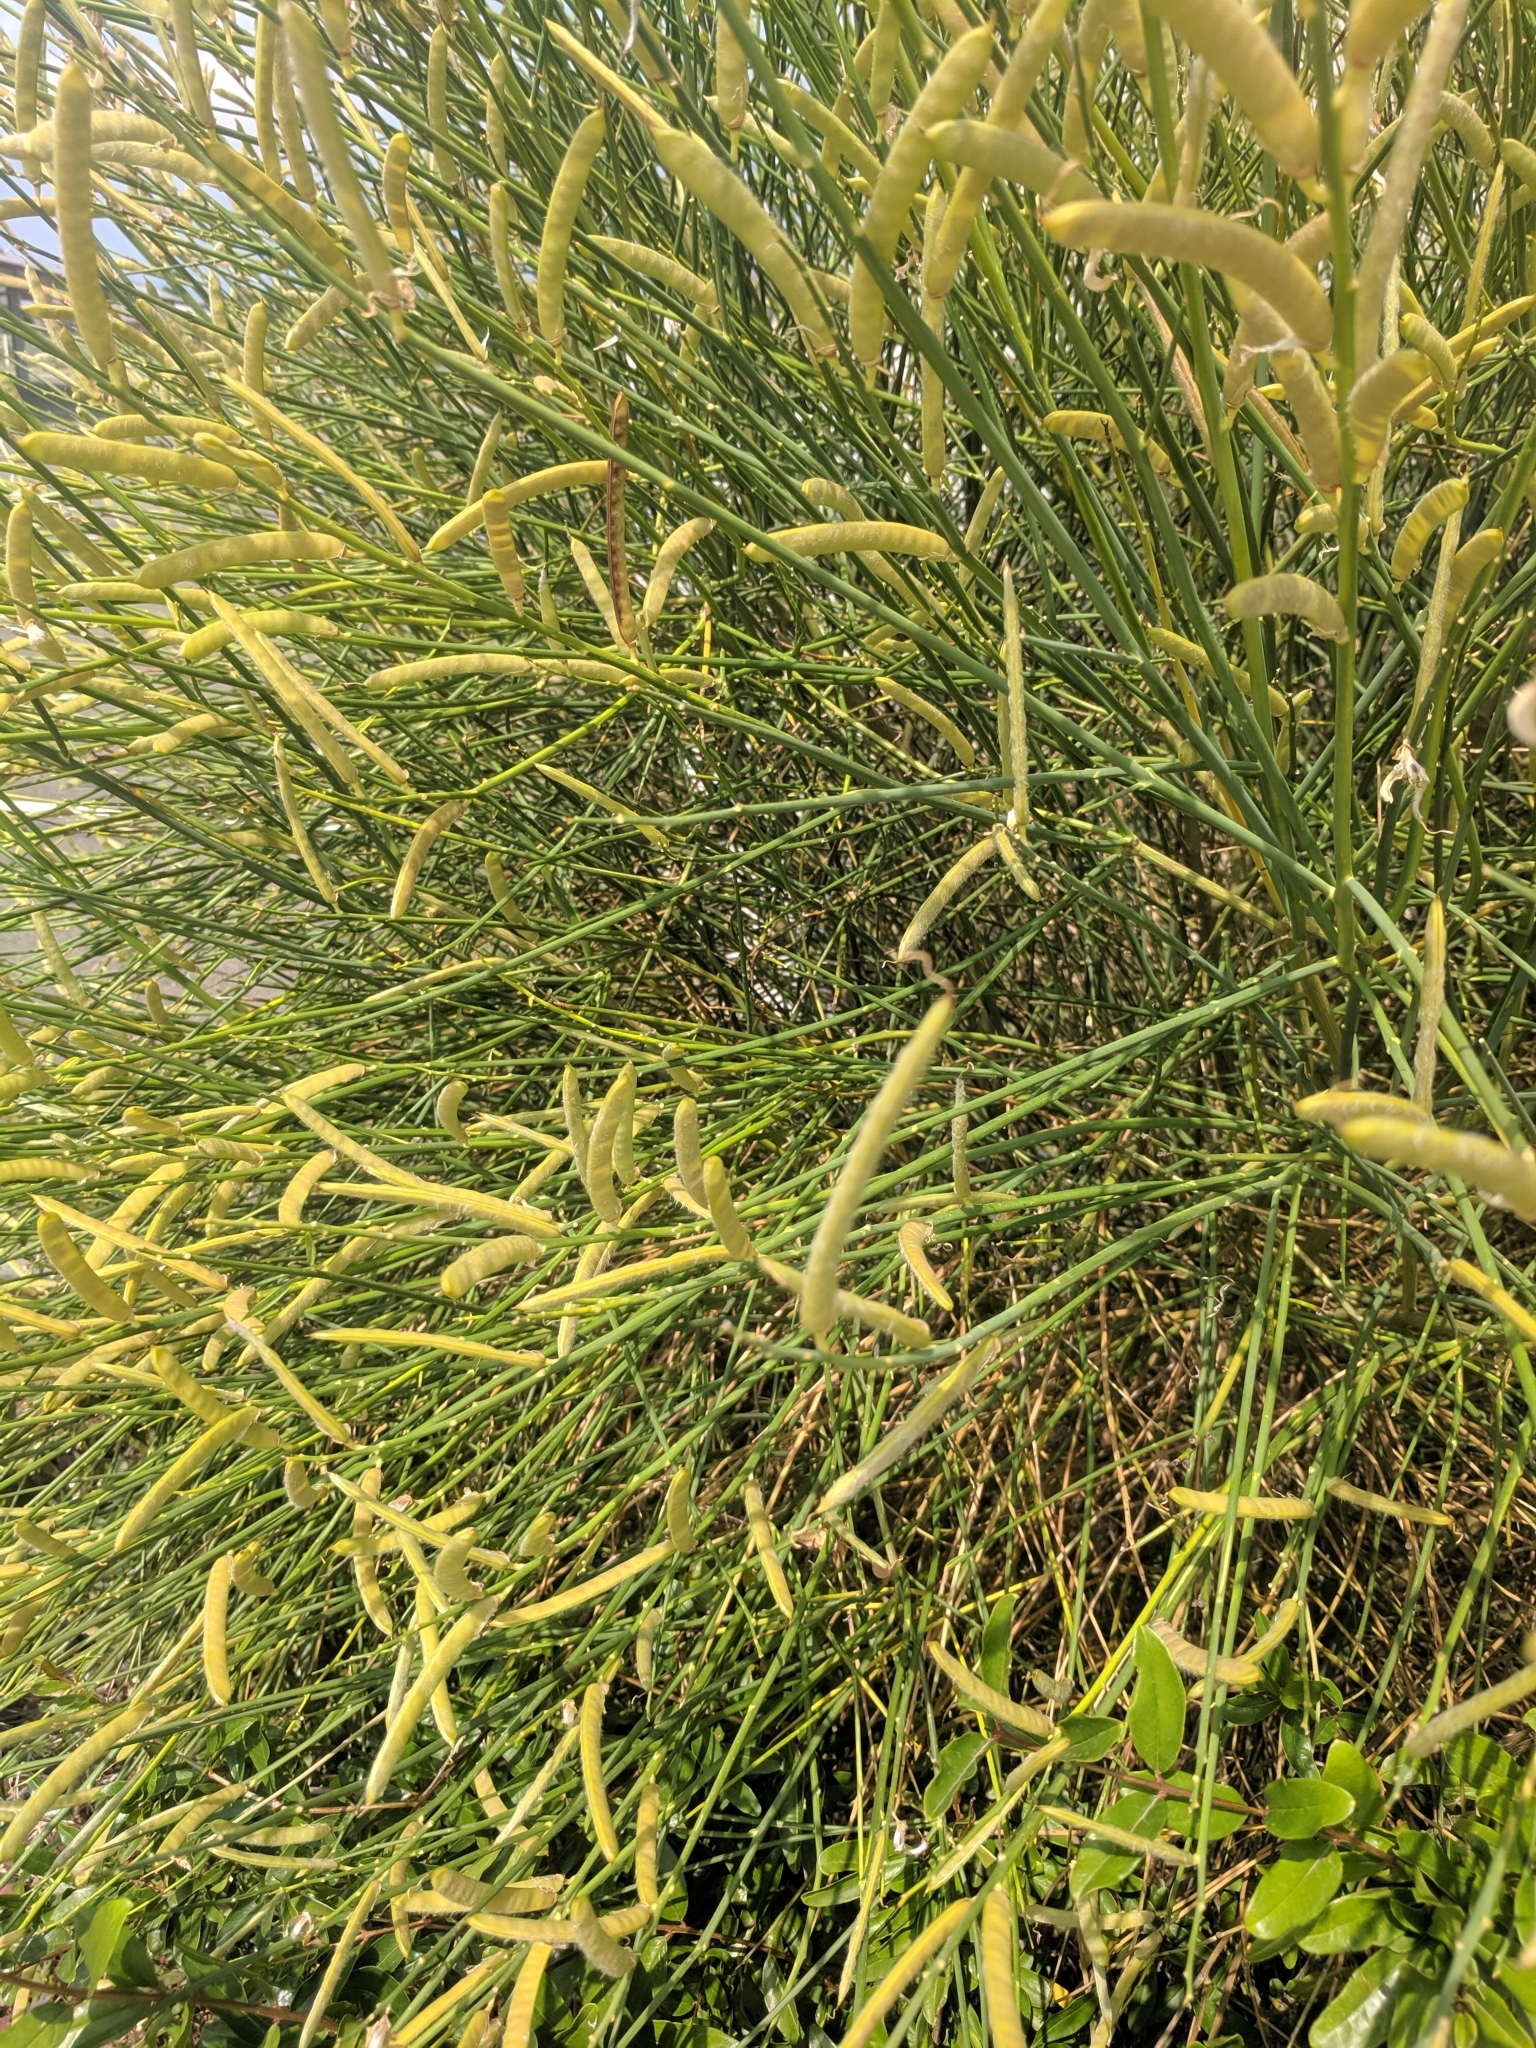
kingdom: Plantae
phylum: Tracheophyta
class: Magnoliopsida
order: Fabales
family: Fabaceae
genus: Spartium
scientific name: Spartium junceum
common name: Spanish broom
